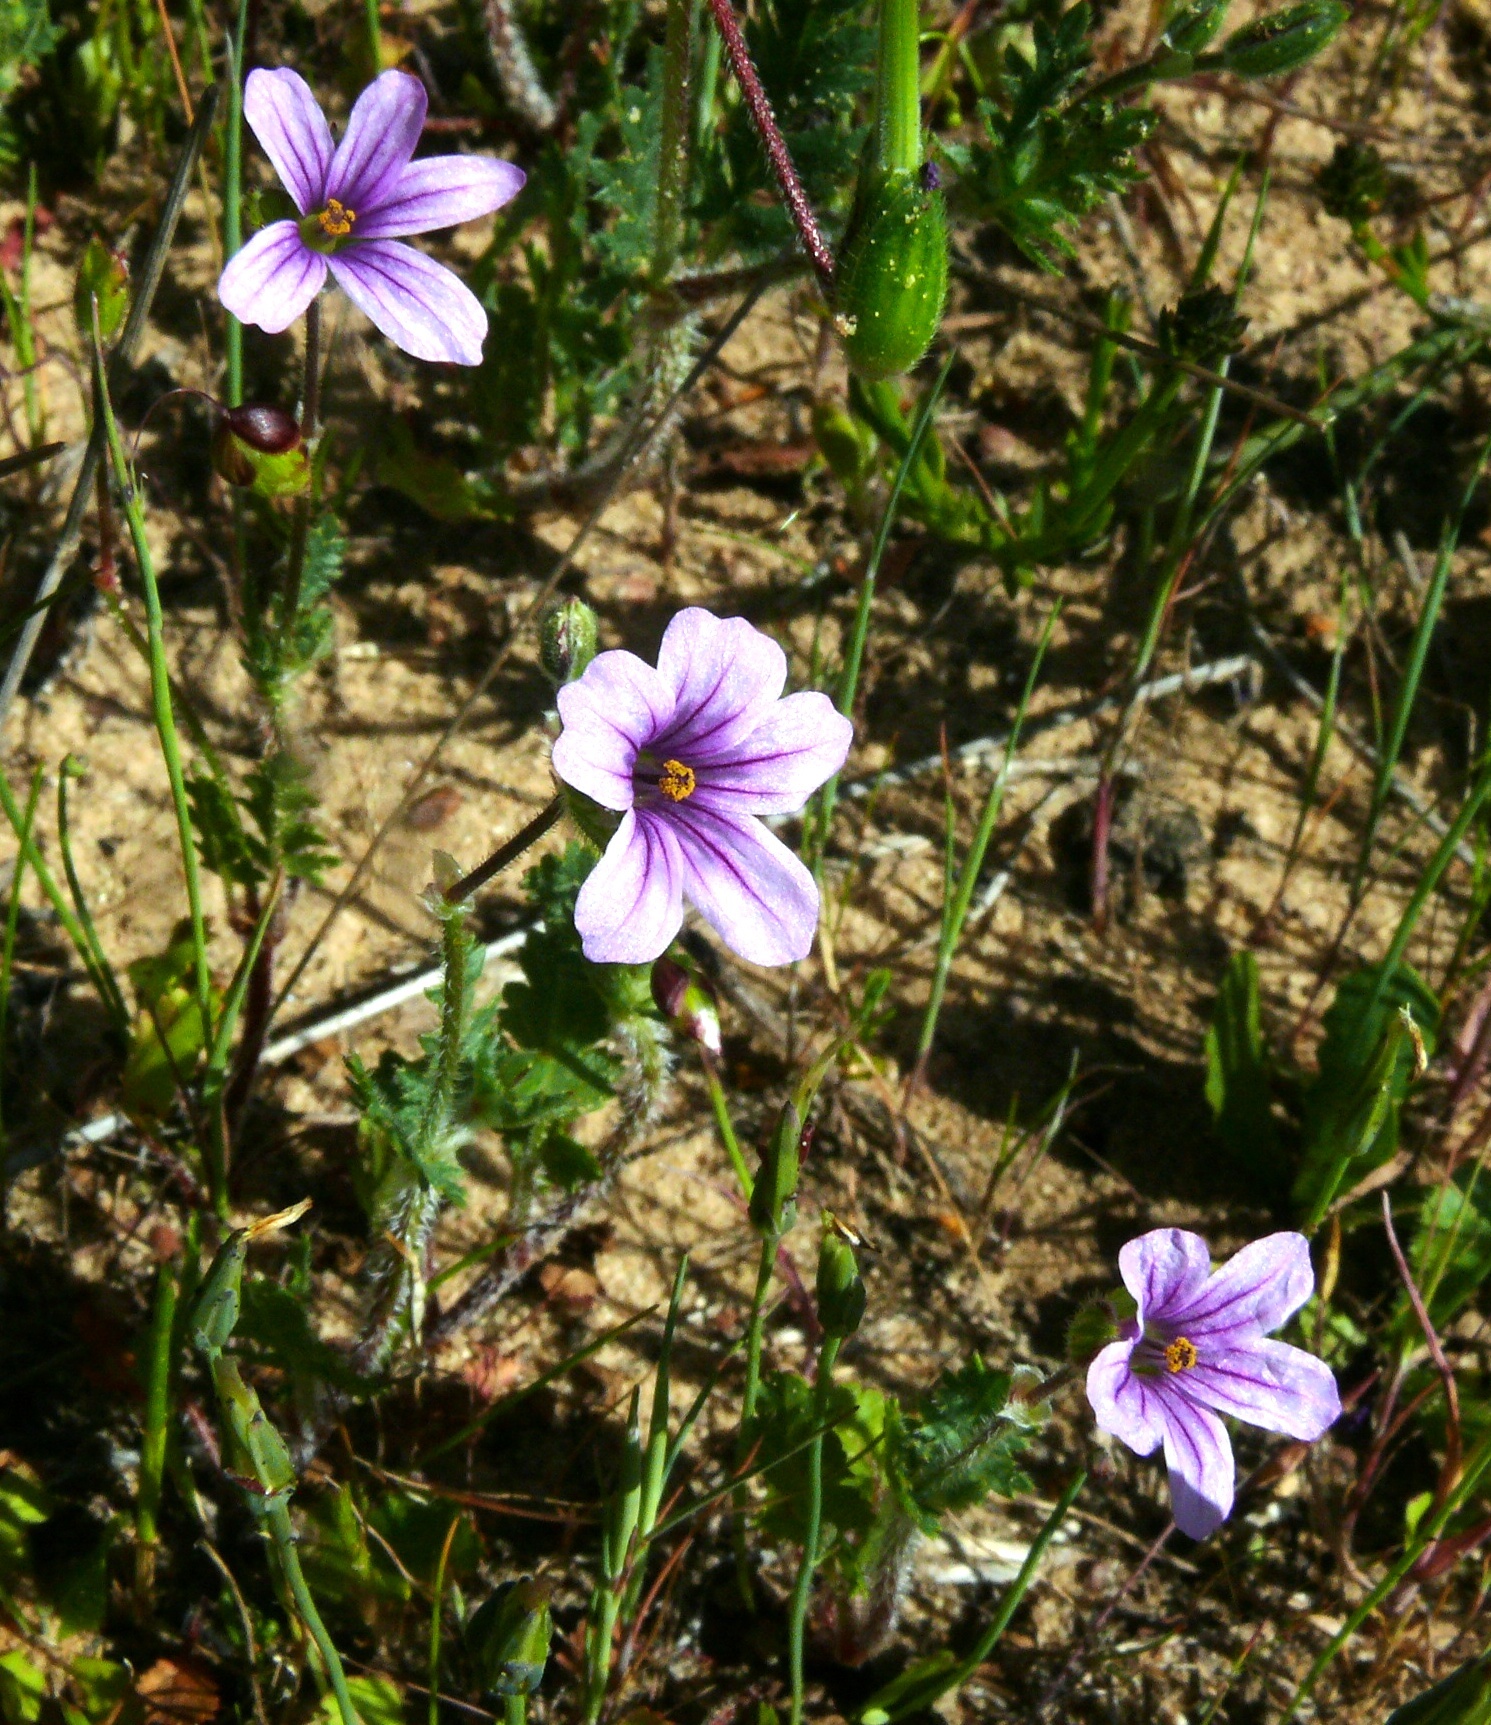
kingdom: Plantae
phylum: Tracheophyta
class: Magnoliopsida
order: Geraniales
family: Geraniaceae
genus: Erodium
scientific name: Erodium botrys
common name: Mediterranean stork's-bill
